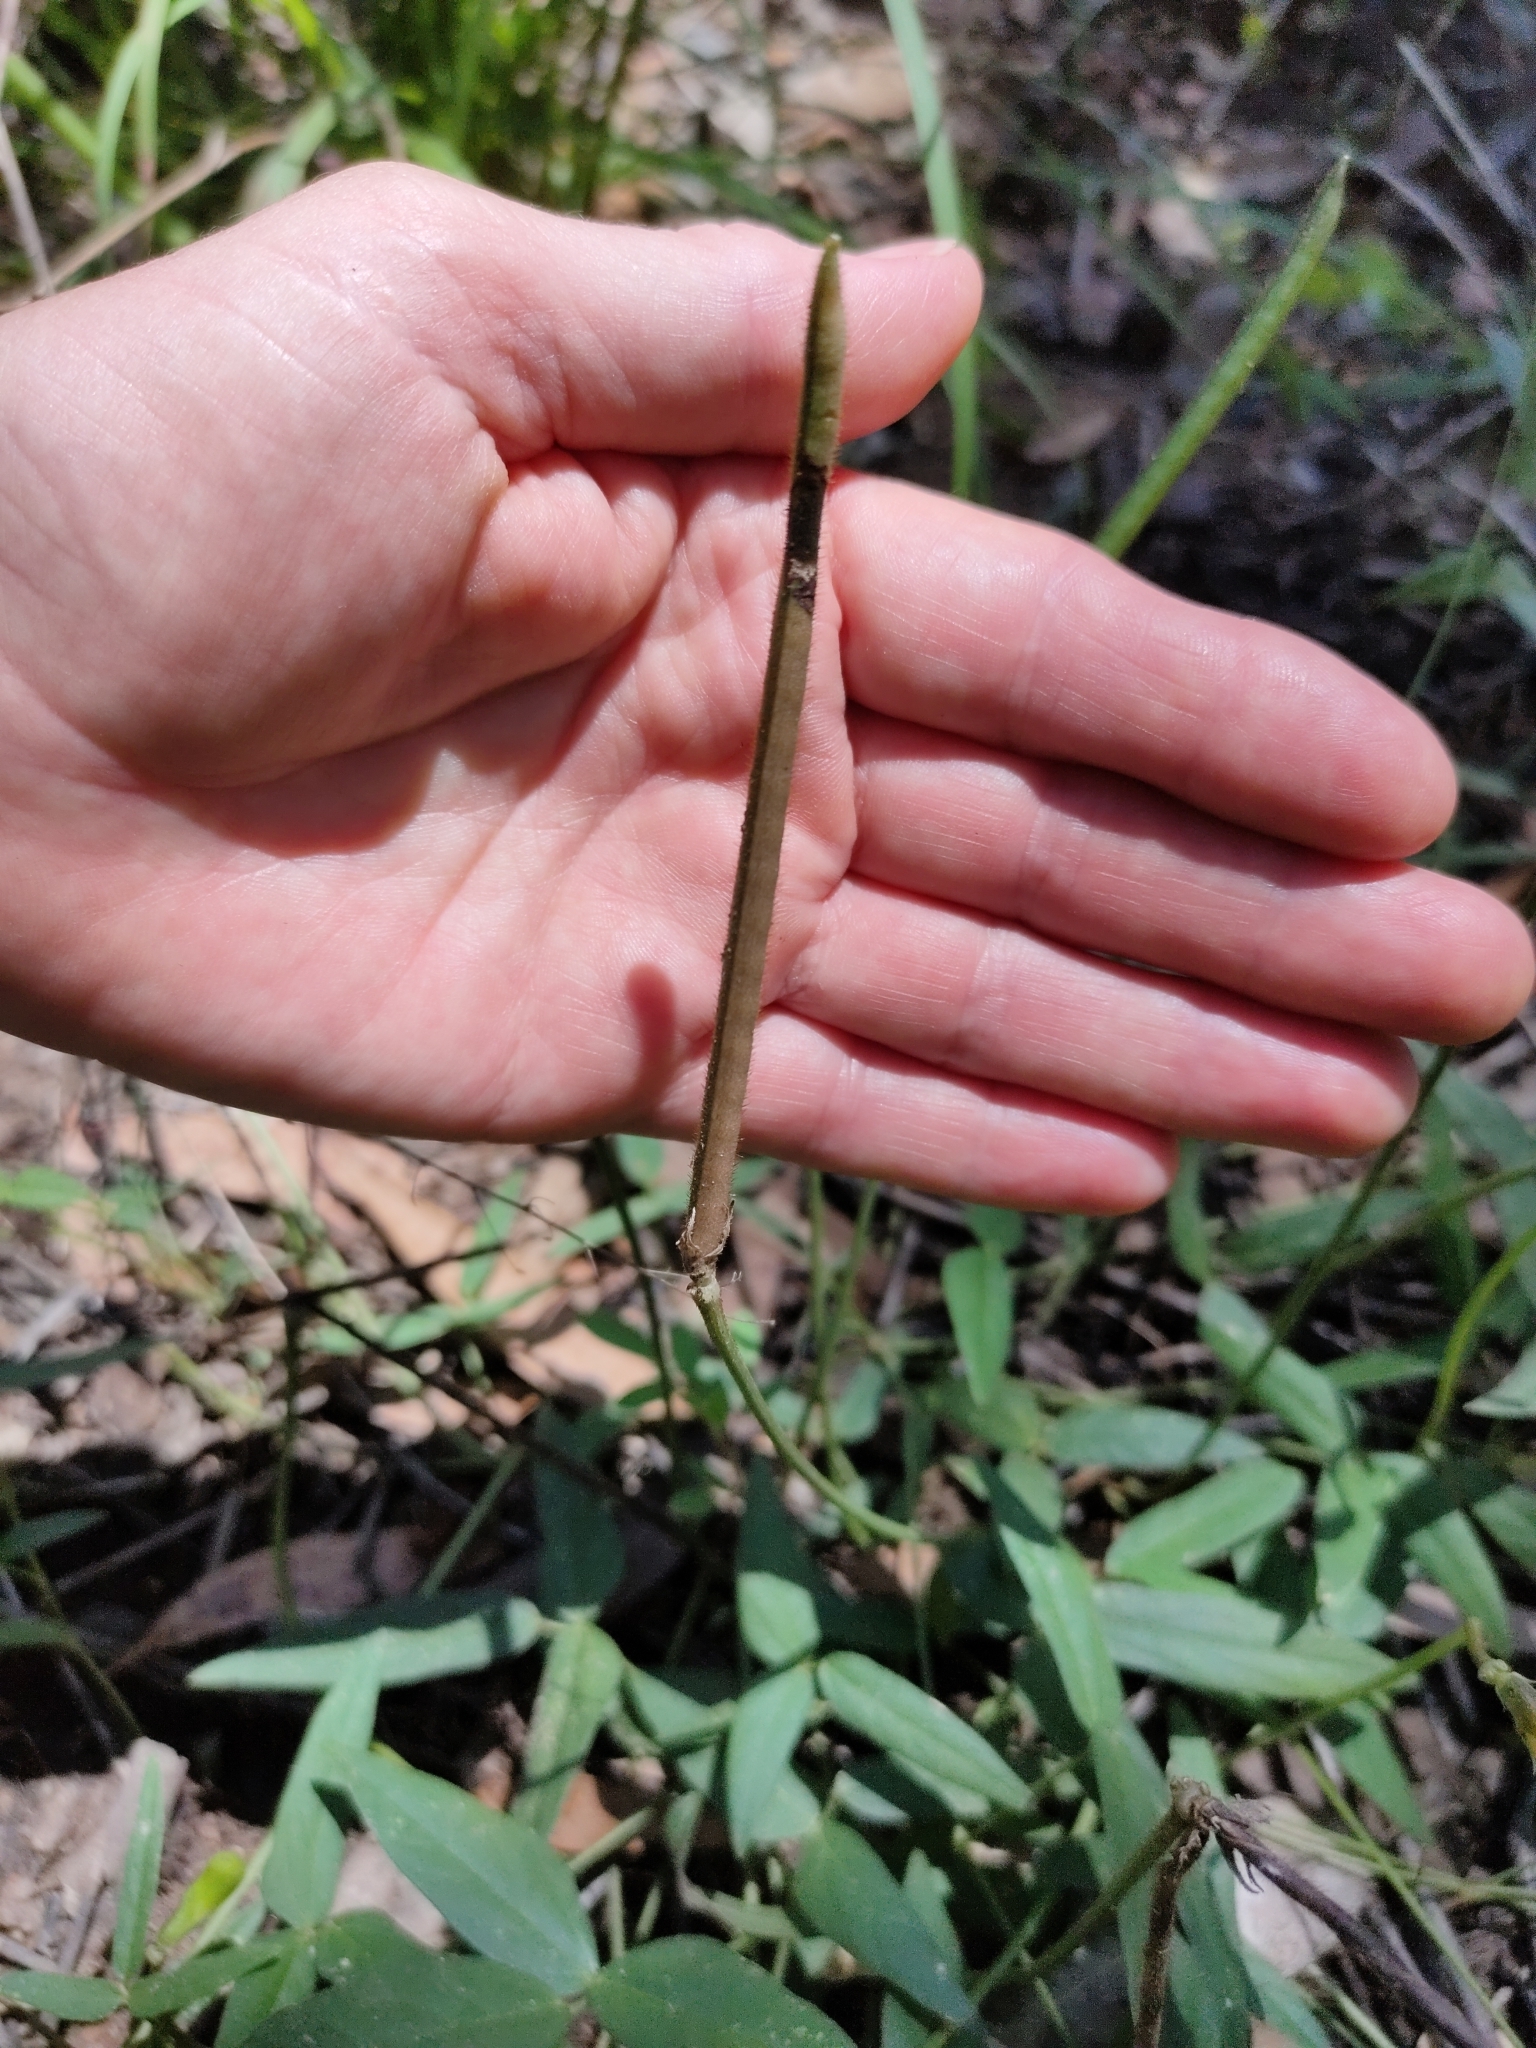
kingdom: Plantae
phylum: Tracheophyta
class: Magnoliopsida
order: Fabales
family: Fabaceae
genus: Vigna
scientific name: Vigna vexillata
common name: Zombi pea
